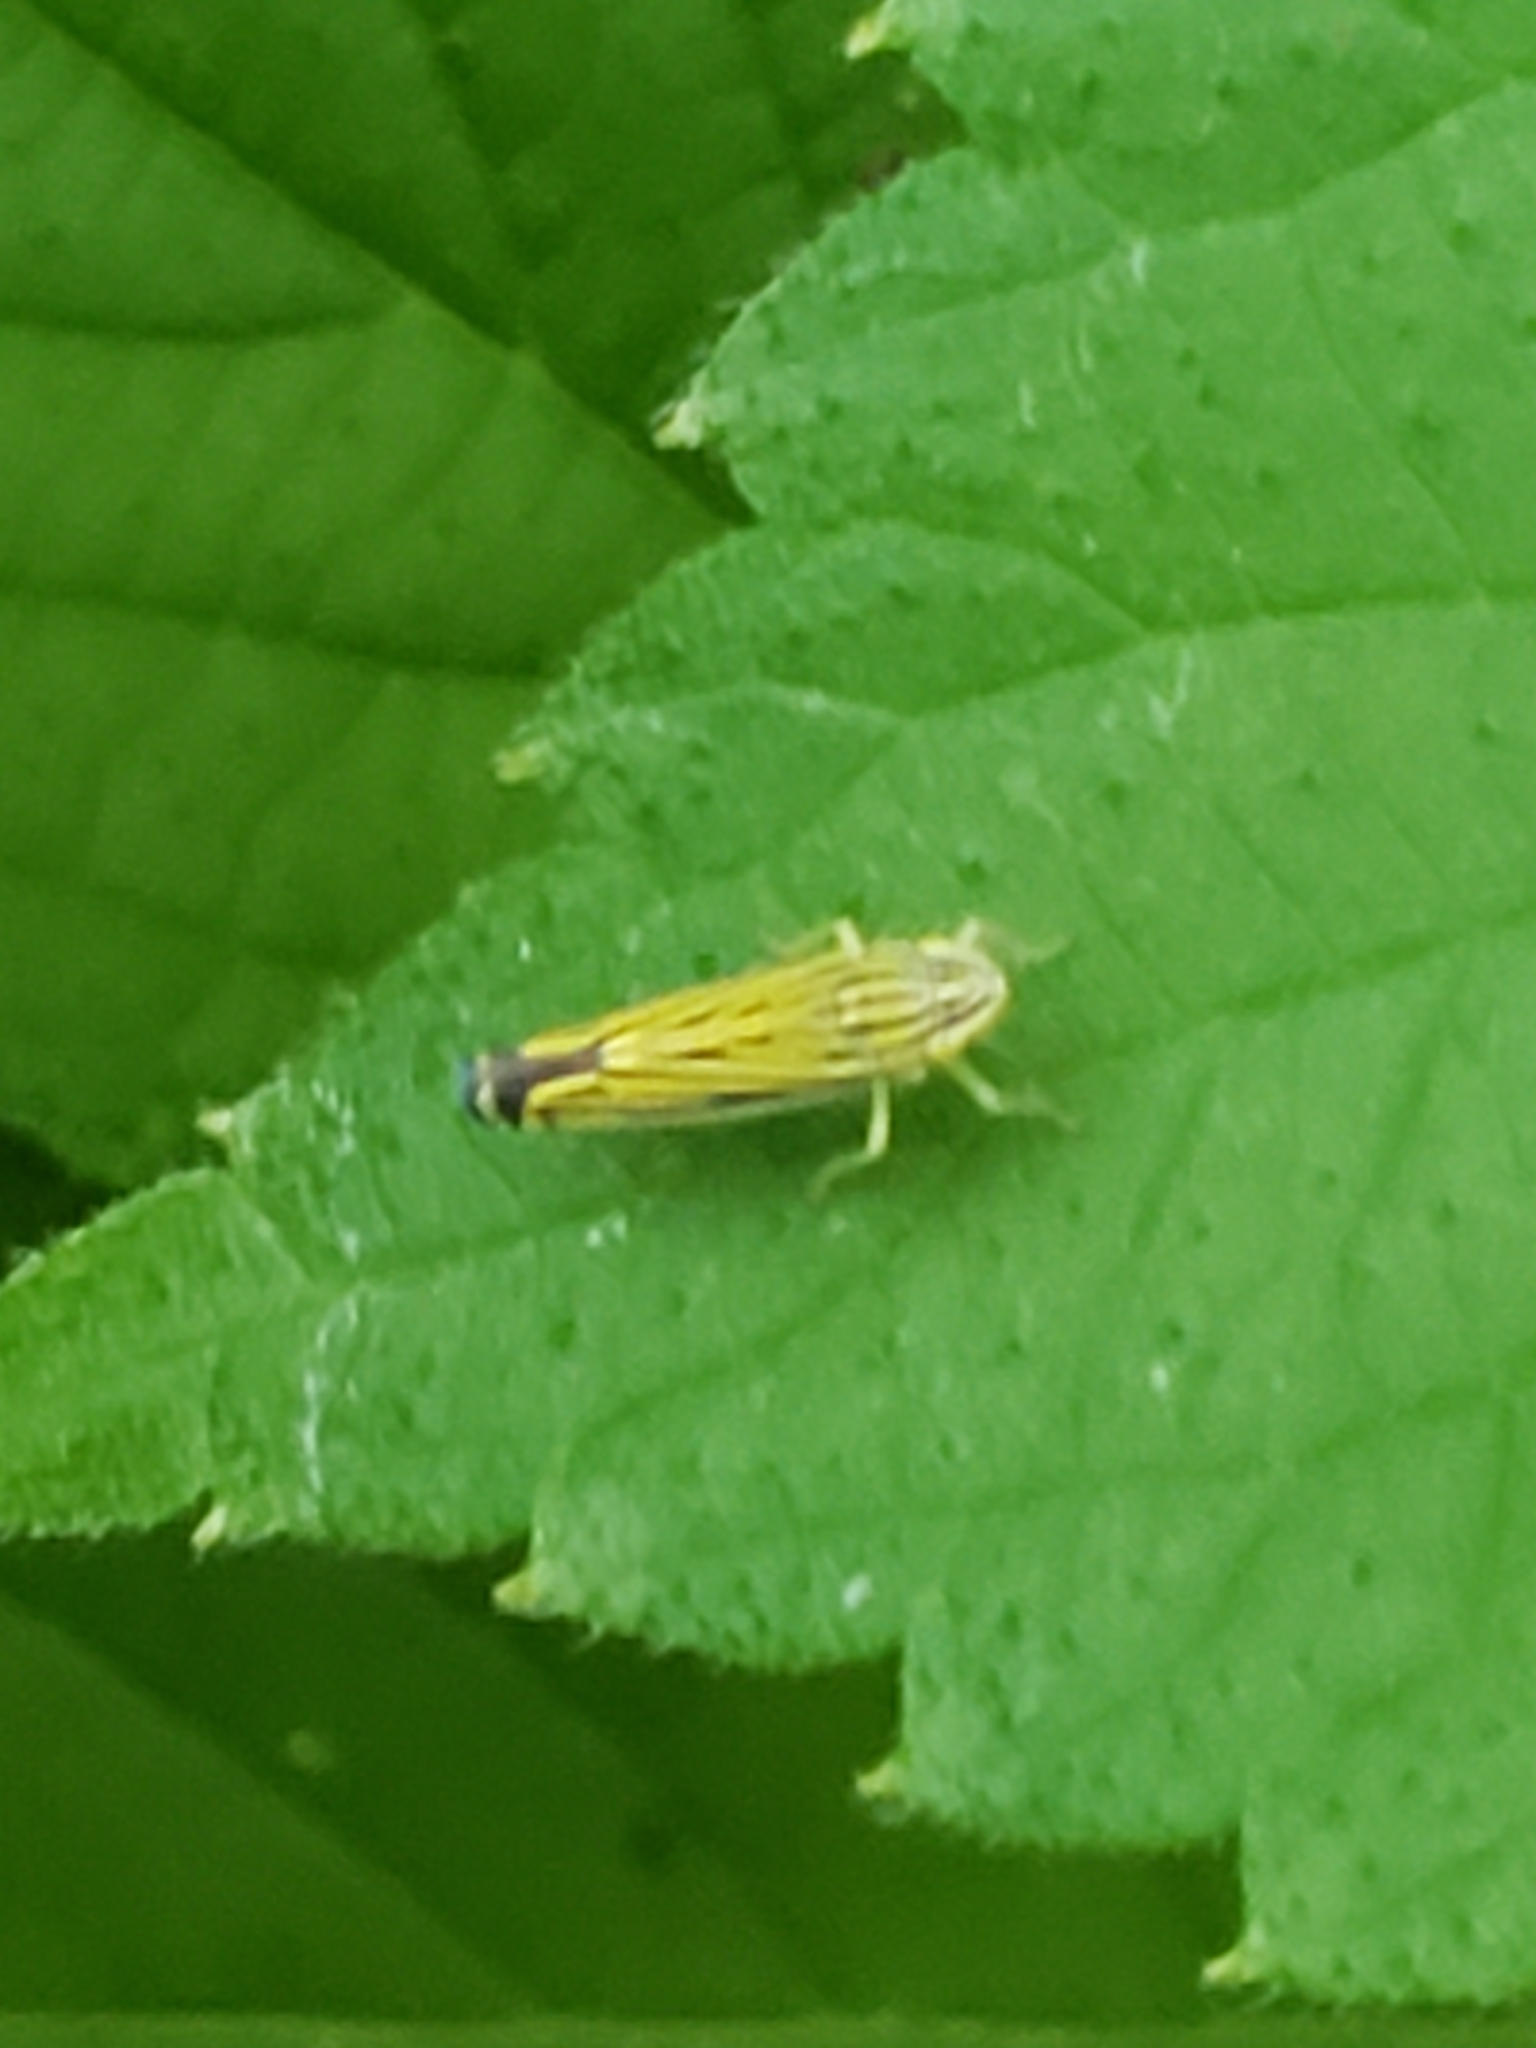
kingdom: Animalia
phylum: Arthropoda
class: Insecta
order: Hemiptera
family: Cicadellidae
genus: Sibovia
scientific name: Sibovia occatoria
